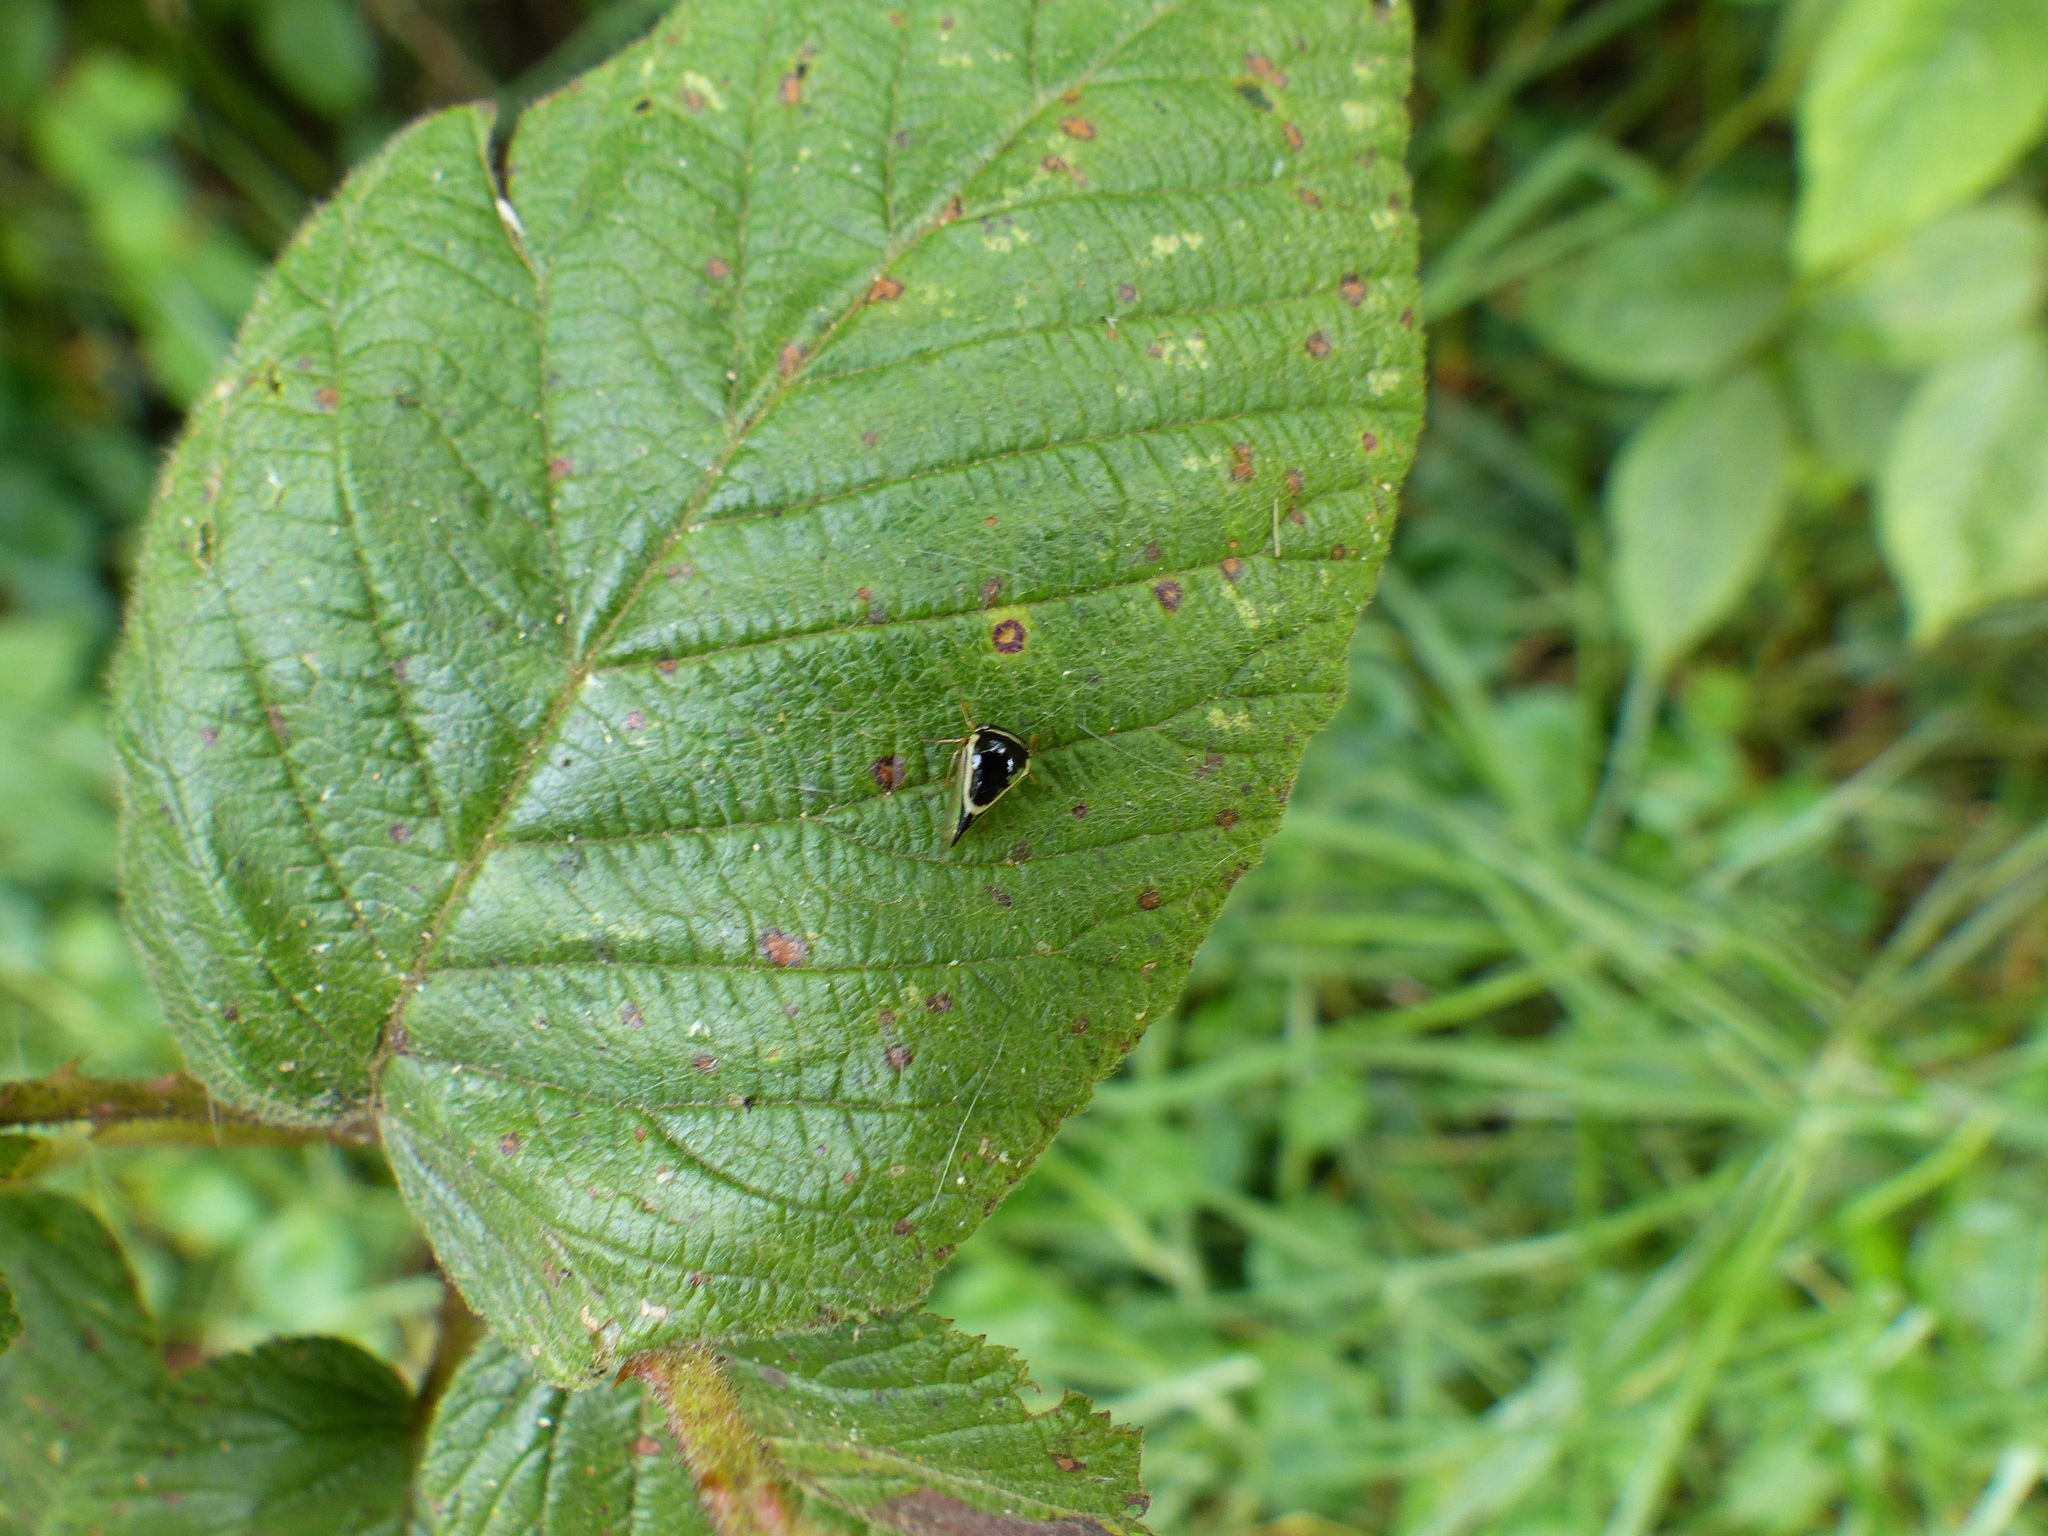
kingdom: Animalia
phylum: Arthropoda
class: Insecta
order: Hemiptera
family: Membracidae
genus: Micrutalis
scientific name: Micrutalis balteata
